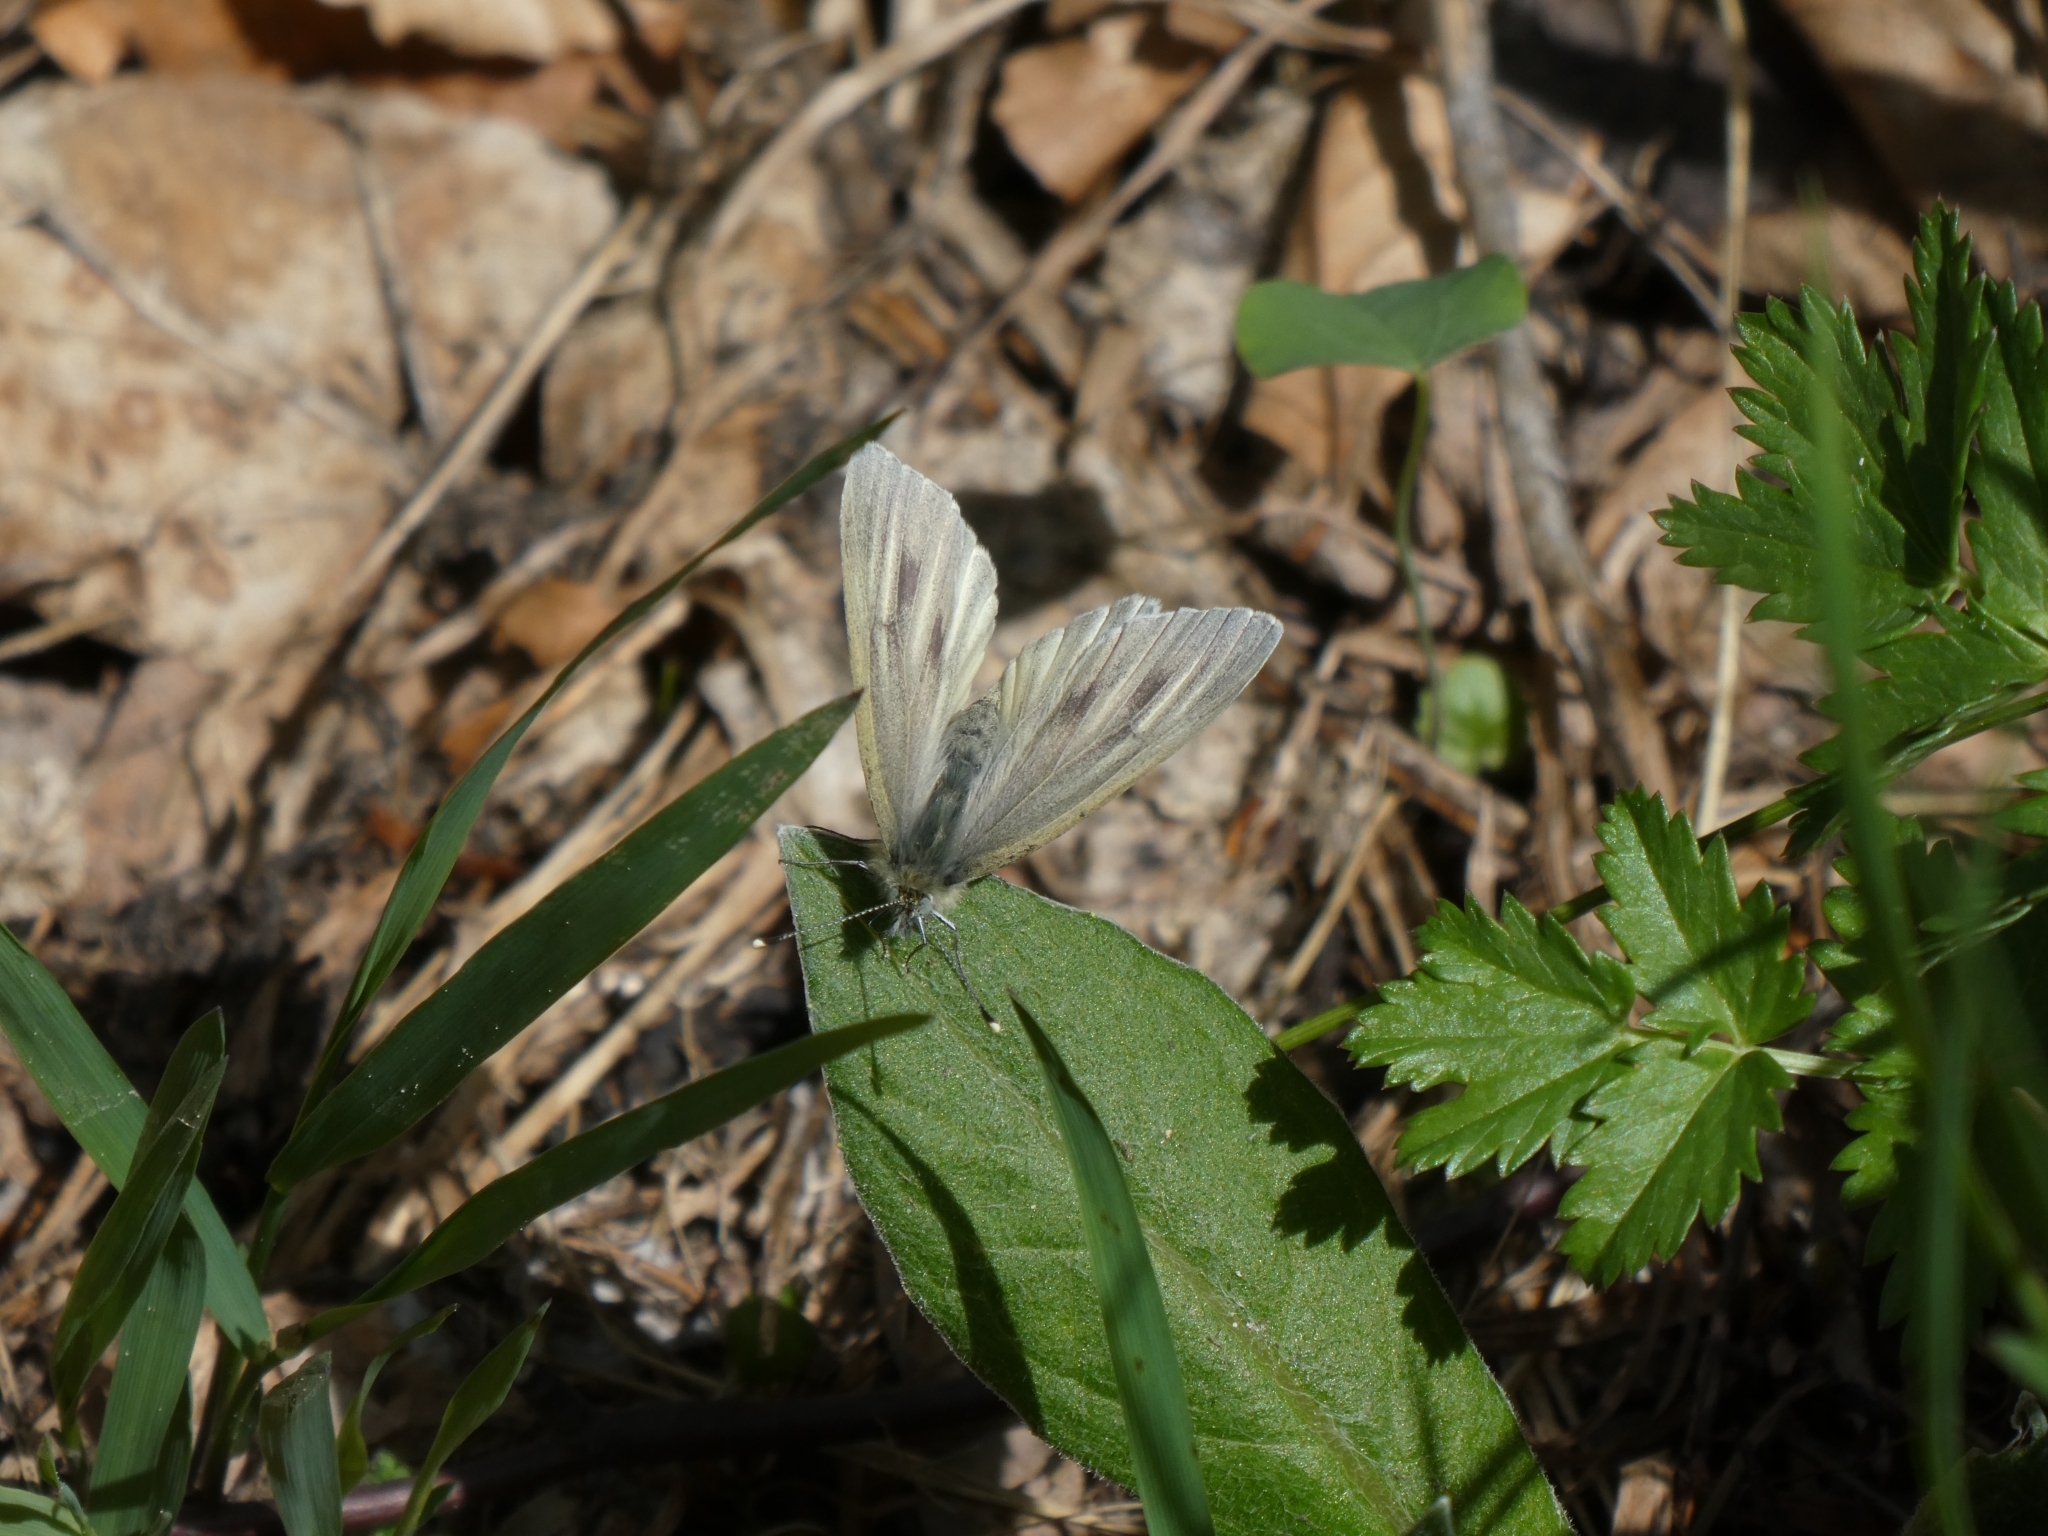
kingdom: Animalia
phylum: Arthropoda
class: Insecta
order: Lepidoptera
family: Pieridae
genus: Pieris
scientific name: Pieris bryoniae
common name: Mountain green-veined white
